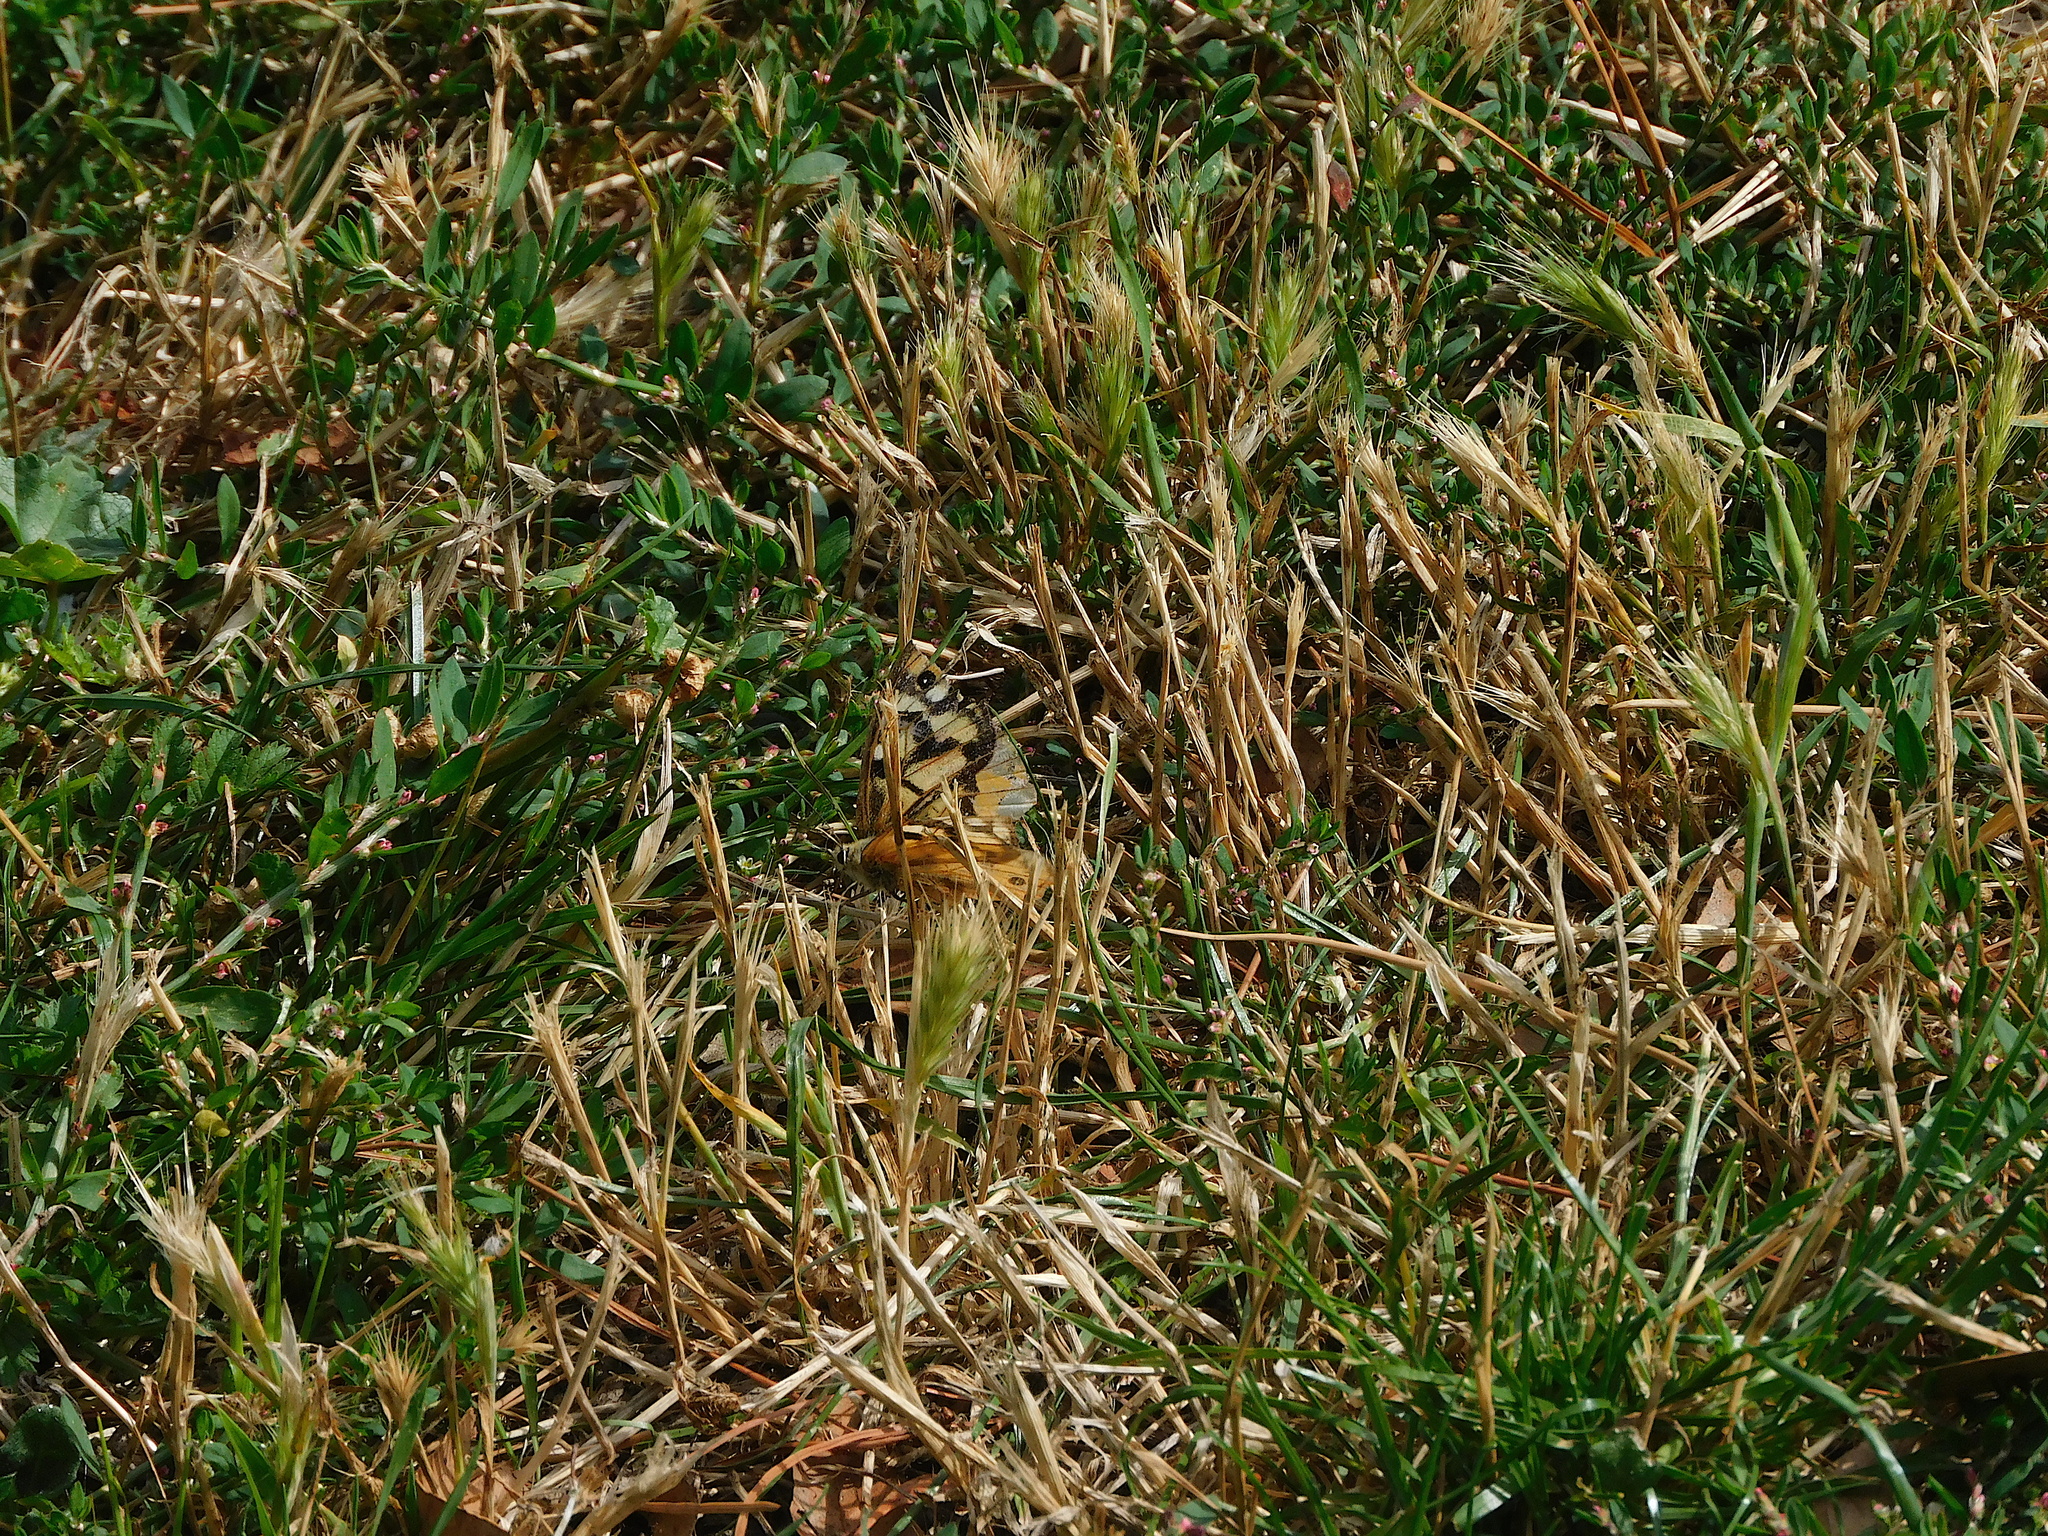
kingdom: Animalia
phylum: Arthropoda
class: Insecta
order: Lepidoptera
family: Nymphalidae
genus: Heteronympha
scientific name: Heteronympha penelope
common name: Shouldered brown
